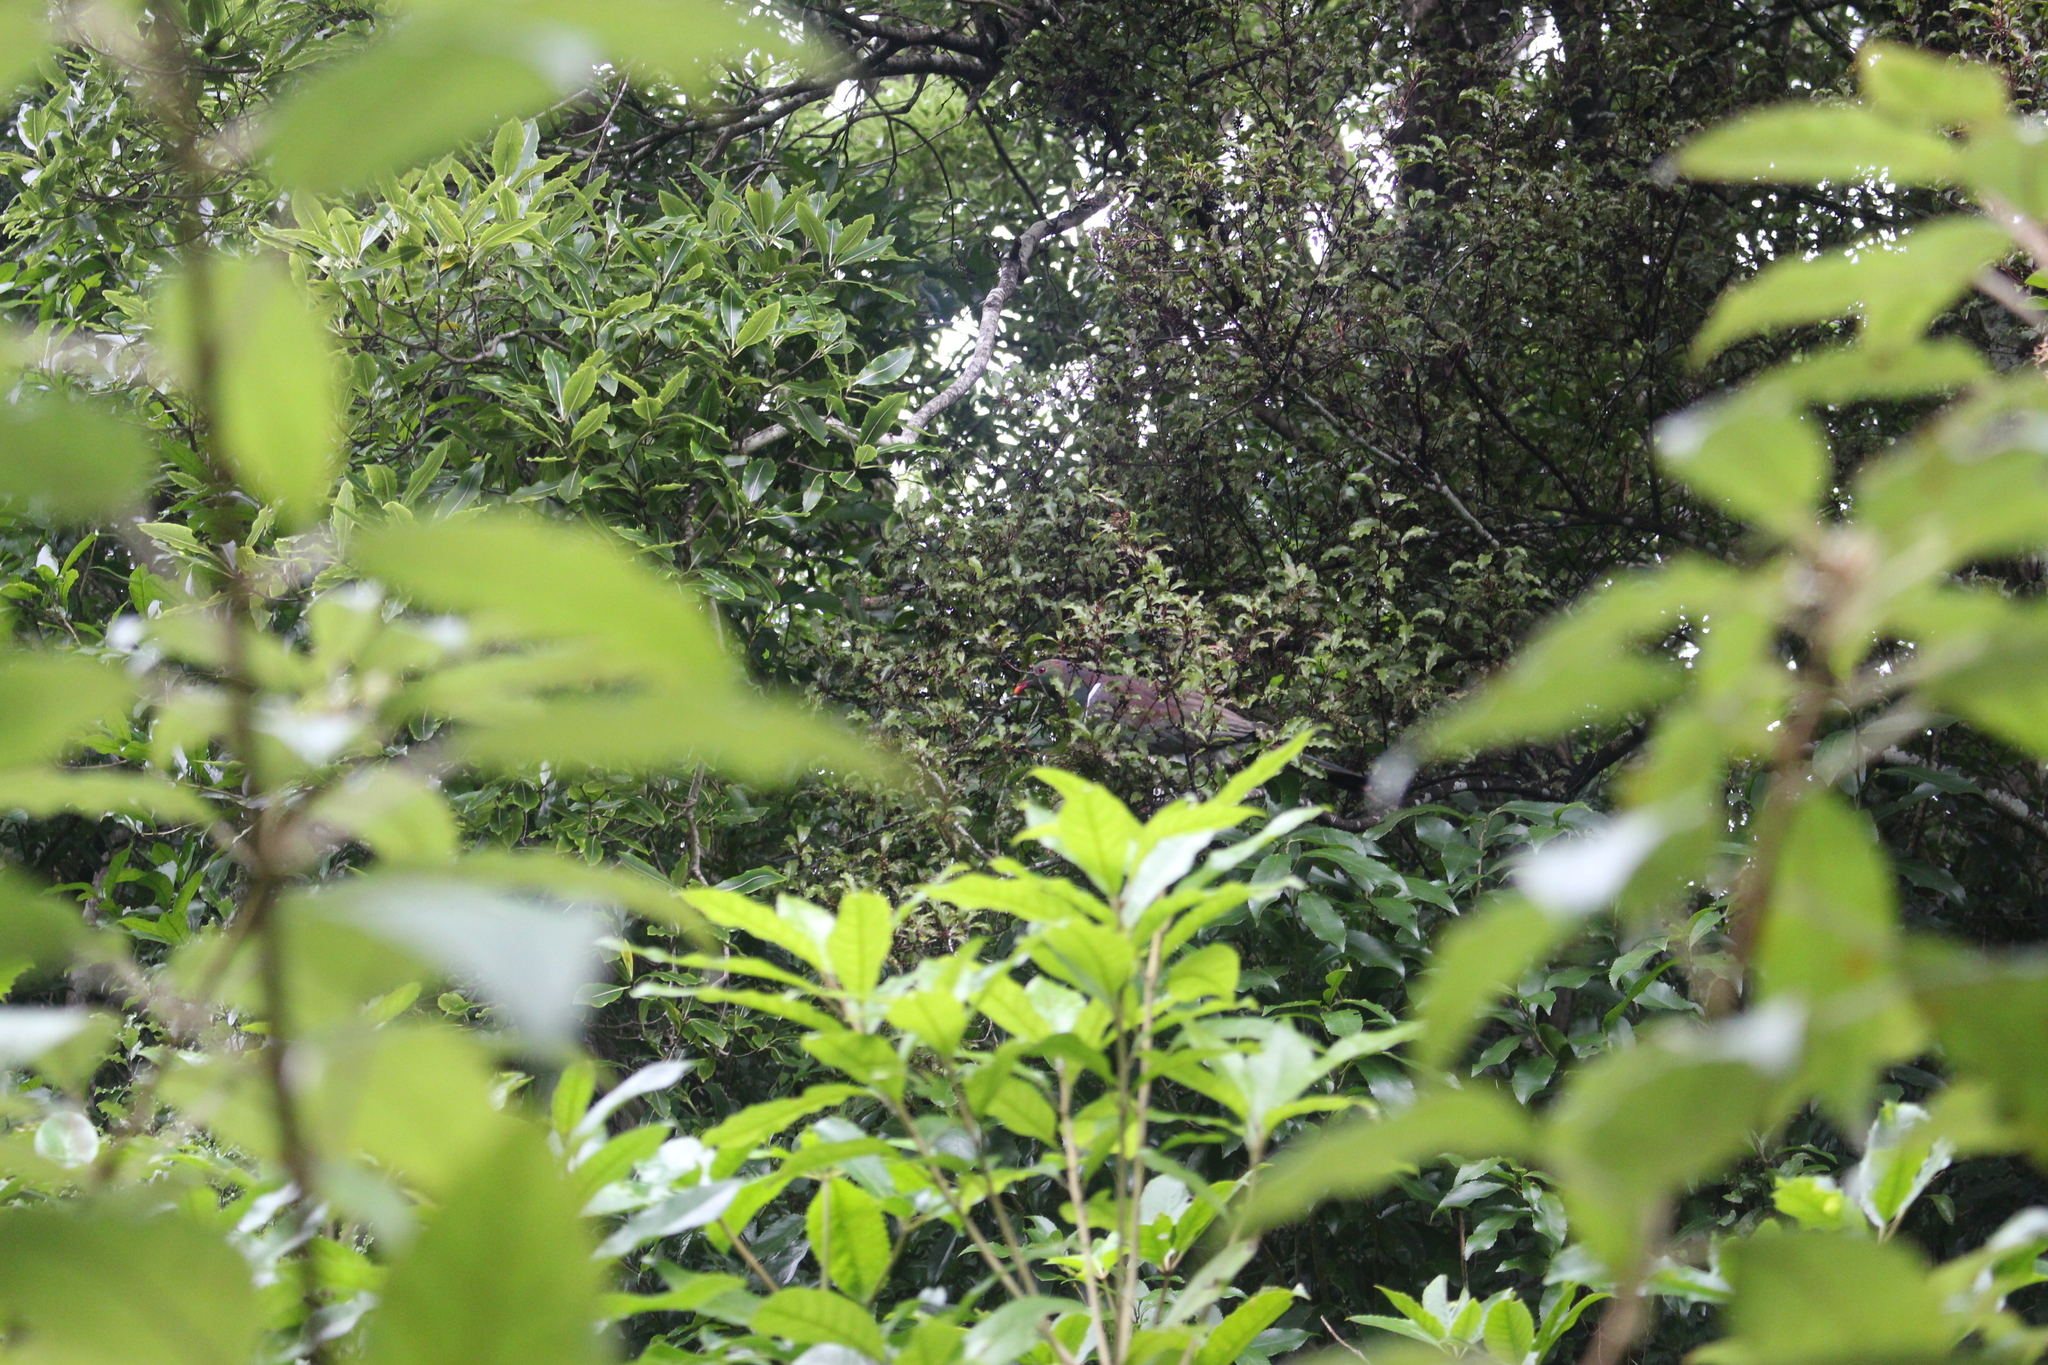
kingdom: Animalia
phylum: Chordata
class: Aves
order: Columbiformes
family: Columbidae
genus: Hemiphaga
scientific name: Hemiphaga novaeseelandiae
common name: New zealand pigeon
